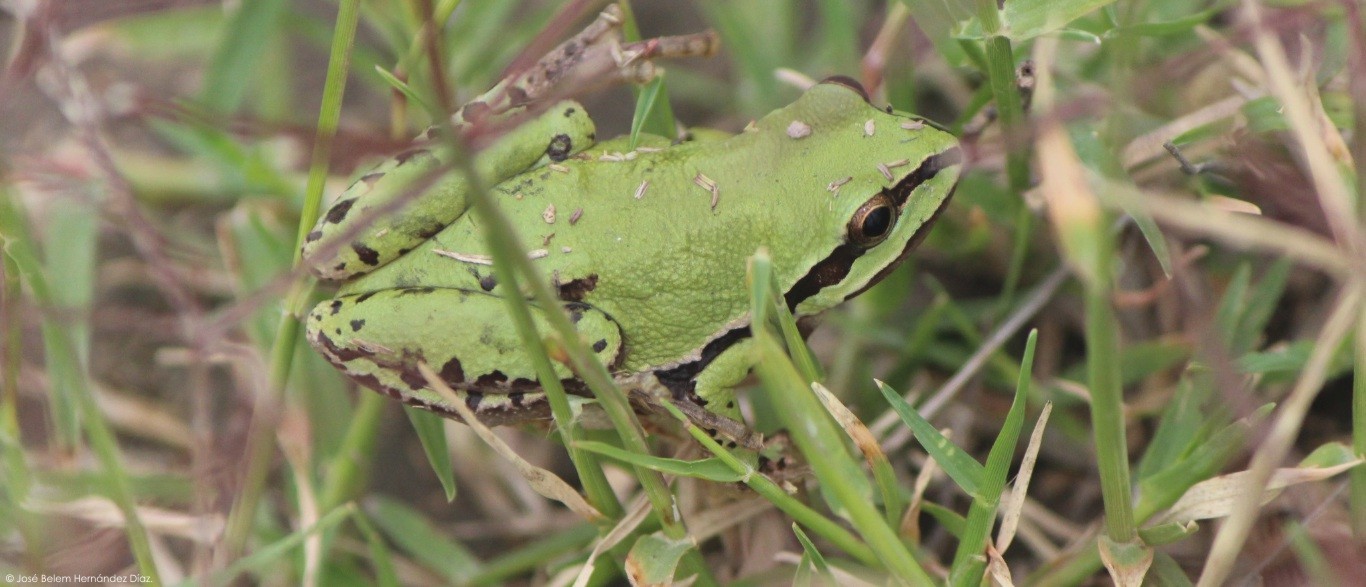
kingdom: Animalia
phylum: Chordata
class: Amphibia
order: Anura
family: Hylidae
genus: Dryophytes
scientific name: Dryophytes eximius
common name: Mountain treefrog
